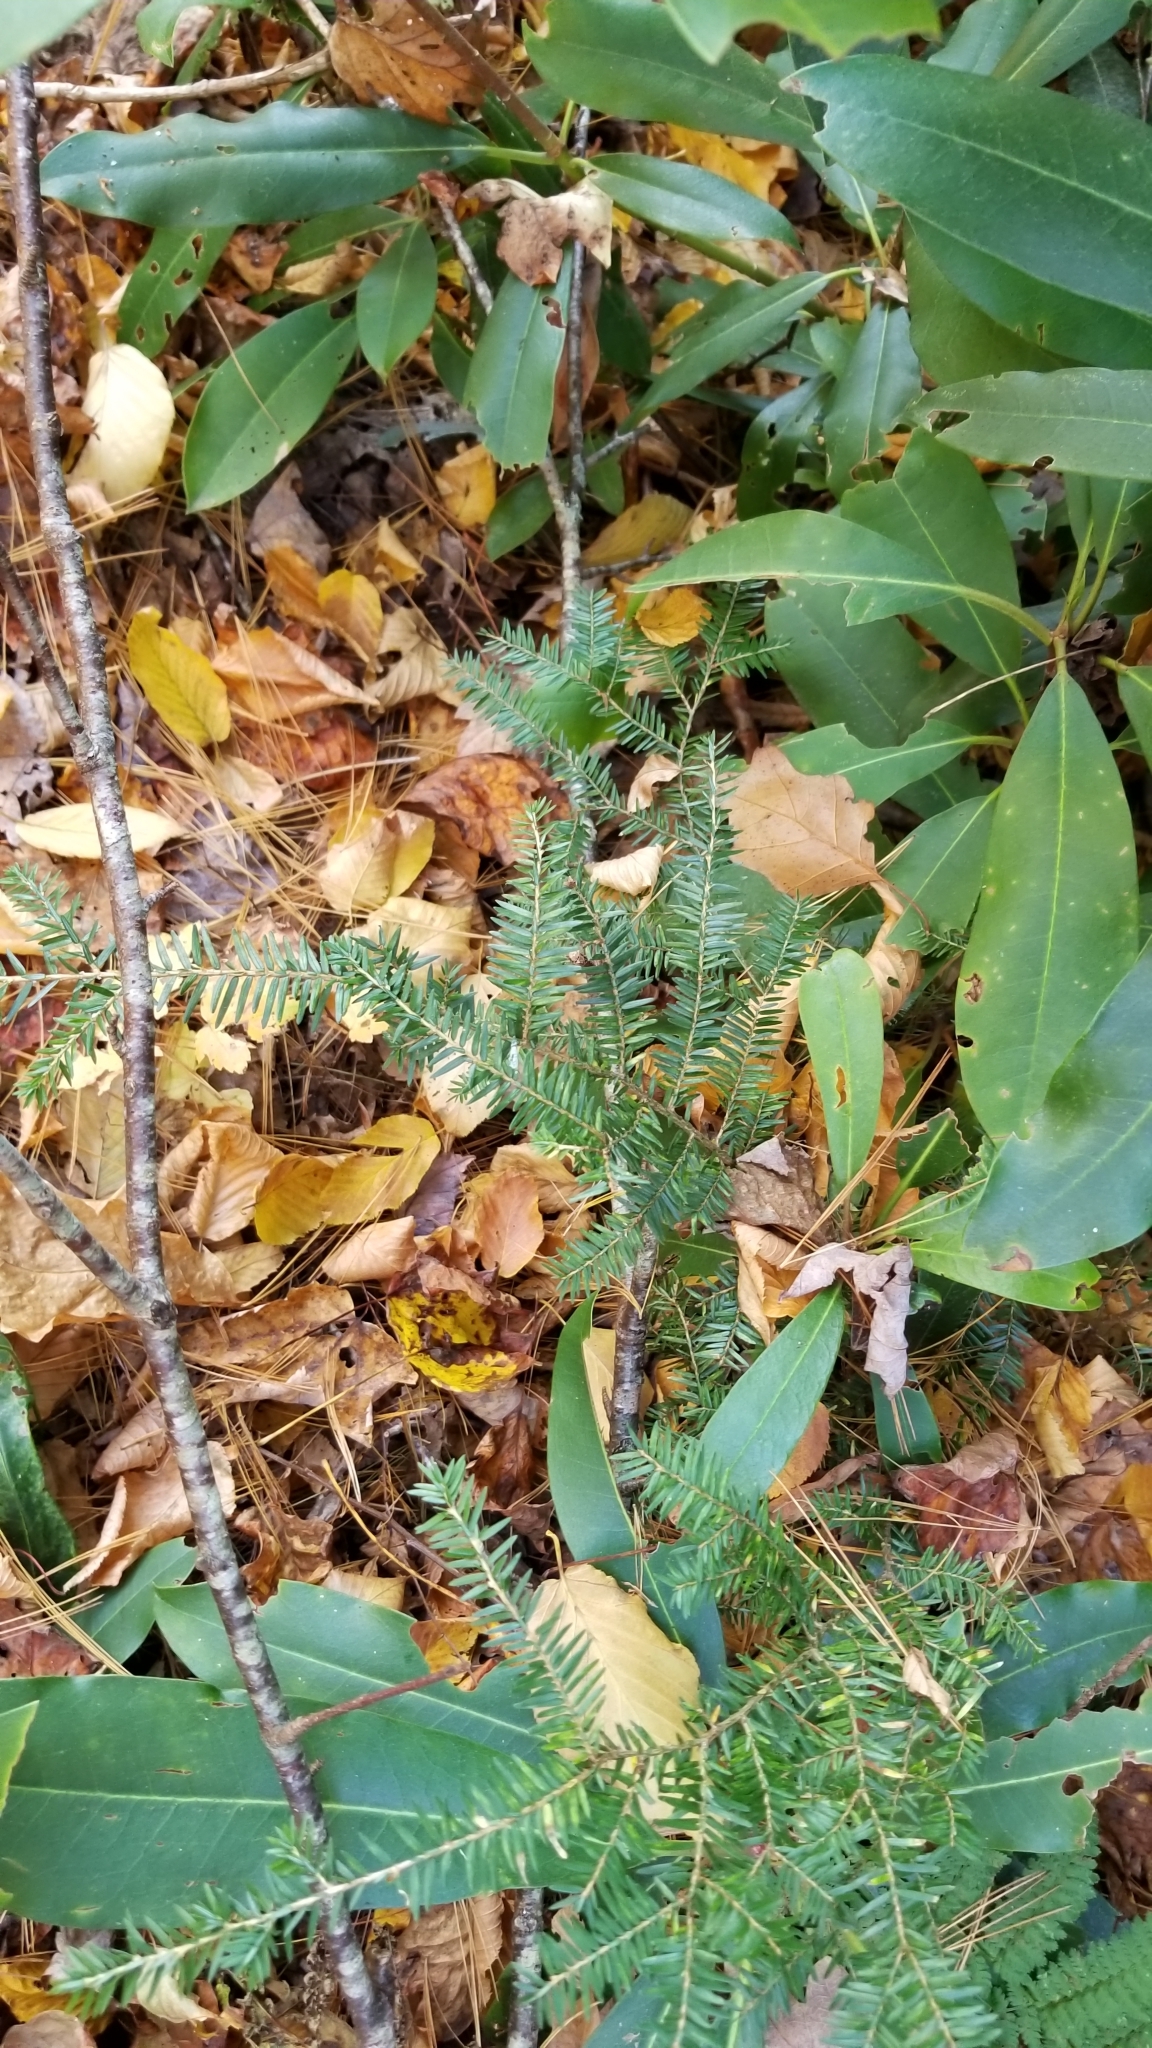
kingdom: Plantae
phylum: Tracheophyta
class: Pinopsida
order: Pinales
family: Pinaceae
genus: Tsuga
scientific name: Tsuga canadensis
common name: Eastern hemlock
